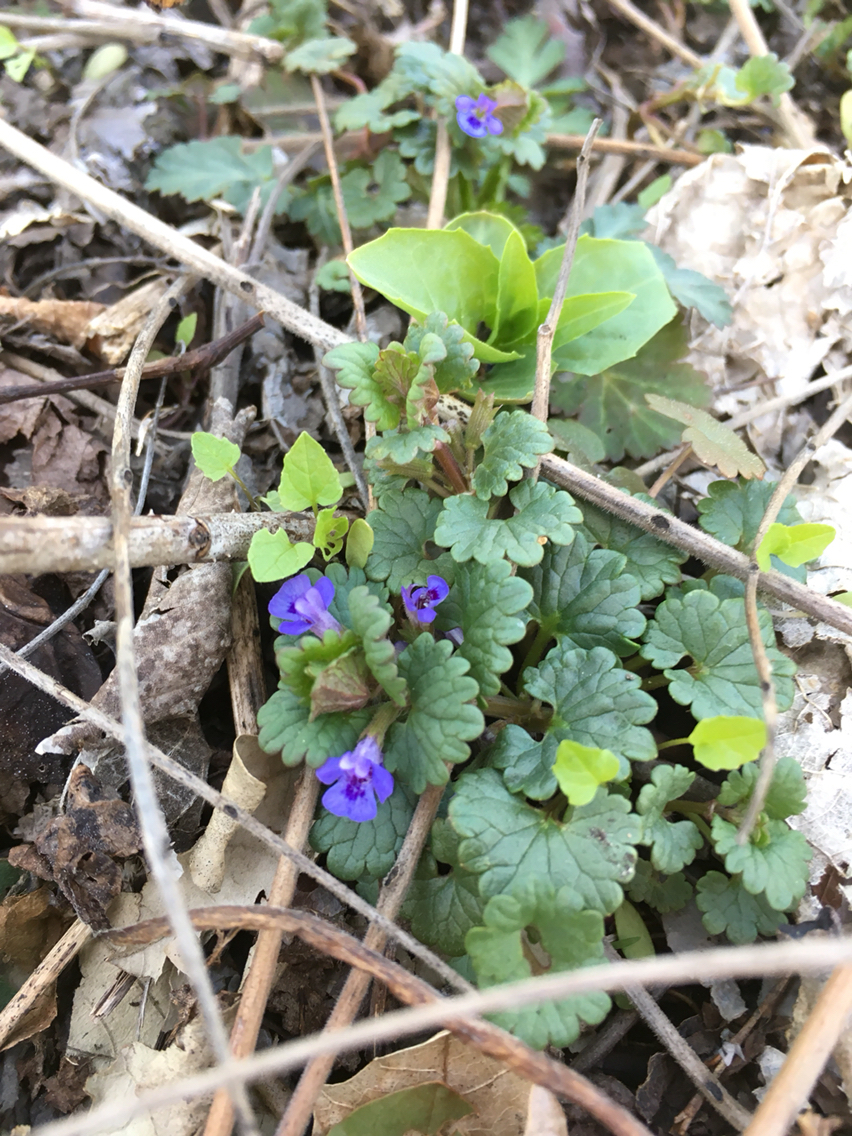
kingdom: Plantae
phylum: Tracheophyta
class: Magnoliopsida
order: Lamiales
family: Lamiaceae
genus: Glechoma
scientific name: Glechoma hederacea
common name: Ground ivy
